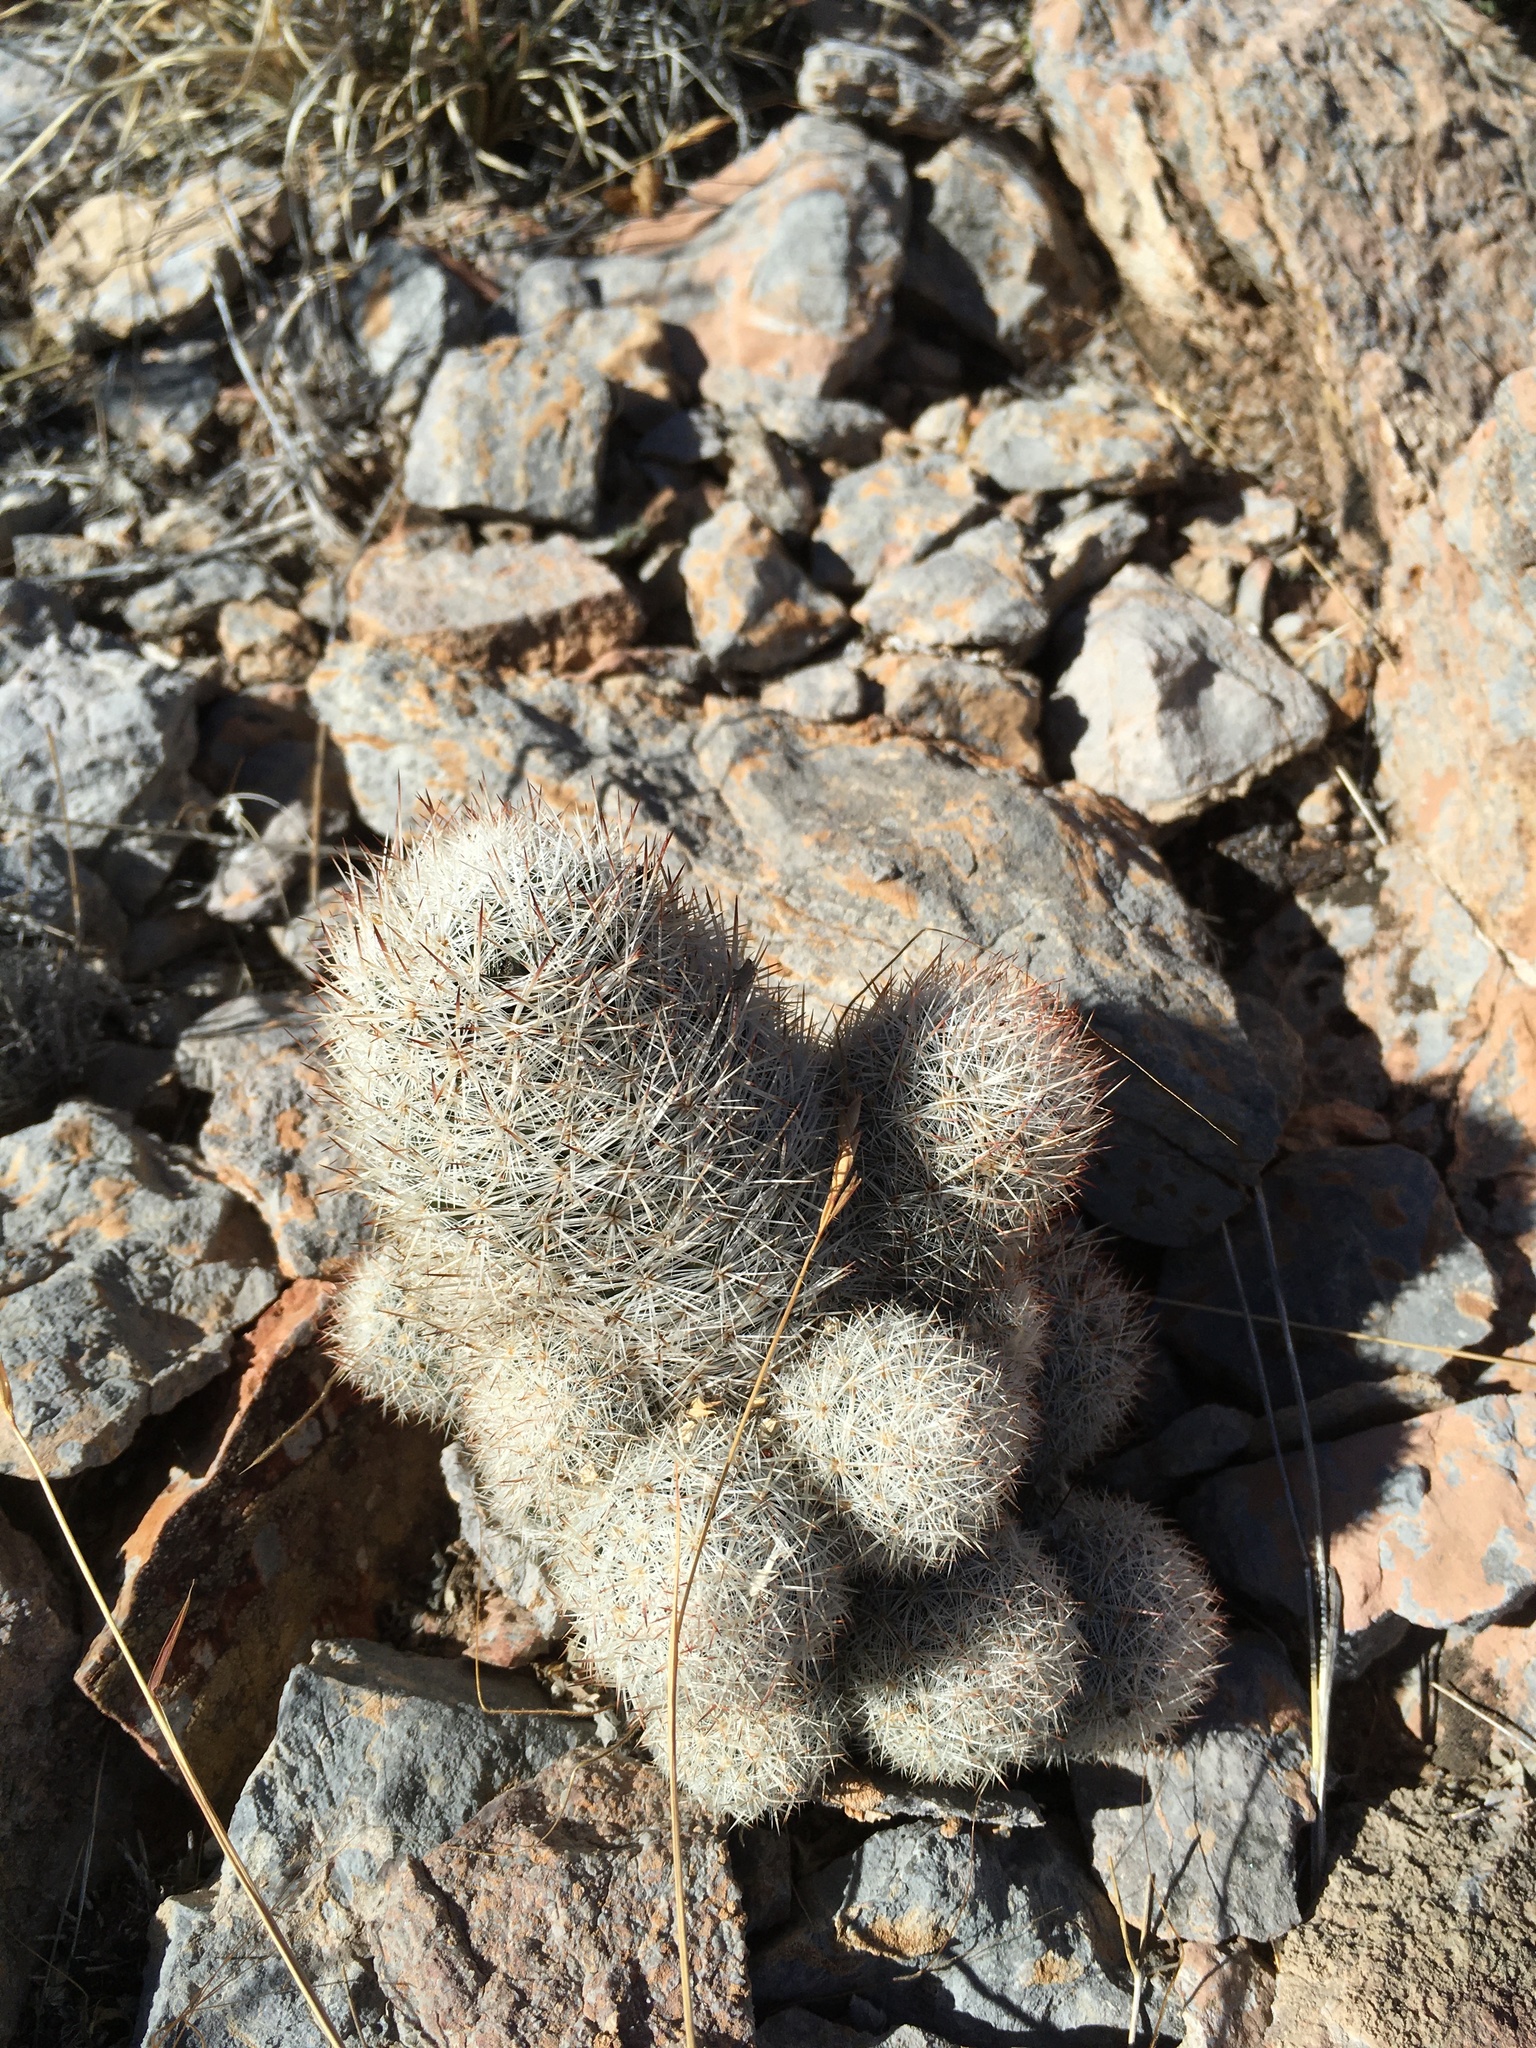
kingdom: Plantae
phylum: Tracheophyta
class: Magnoliopsida
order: Caryophyllales
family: Cactaceae
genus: Pelecyphora
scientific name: Pelecyphora sneedii
